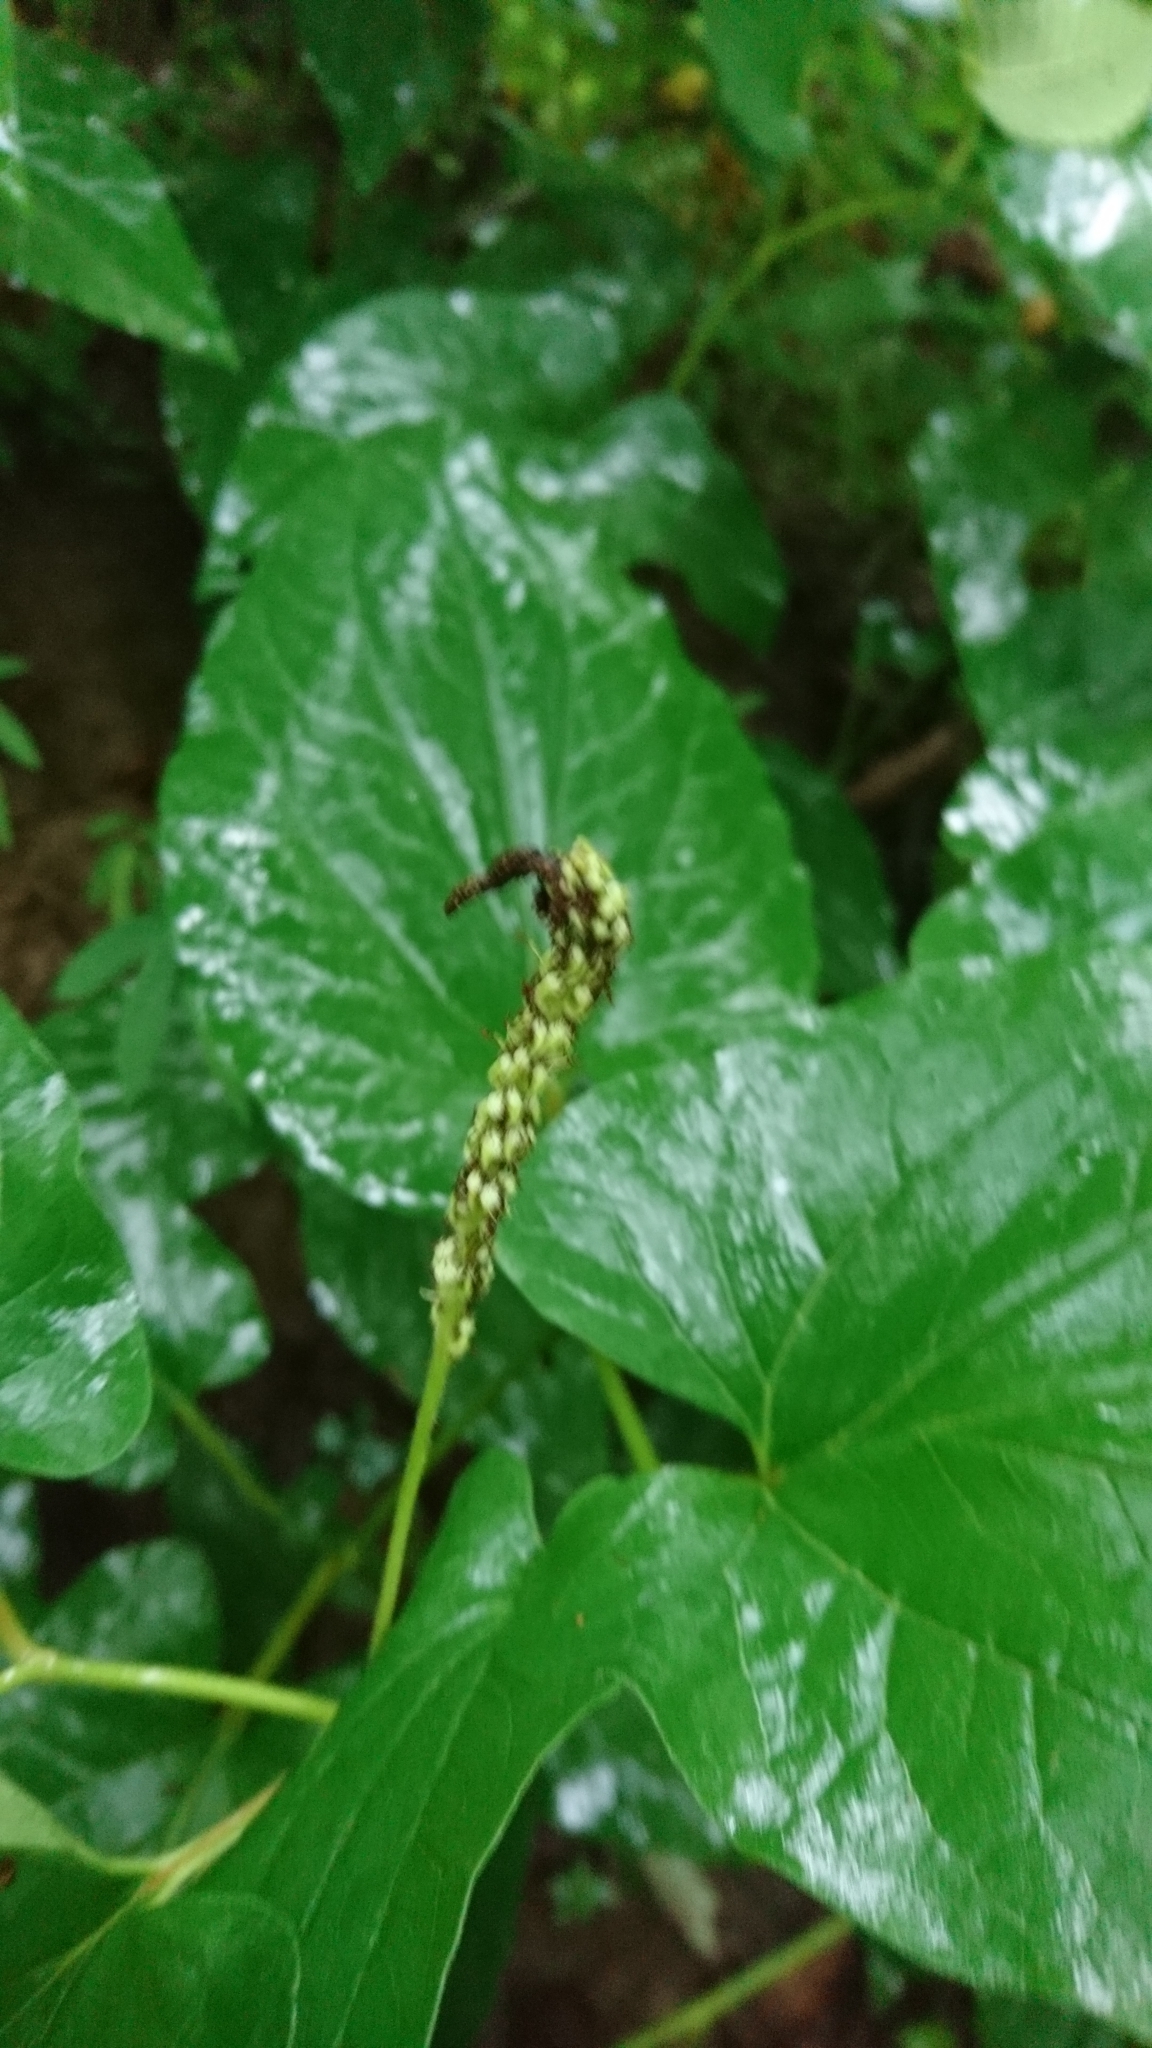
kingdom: Plantae
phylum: Tracheophyta
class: Magnoliopsida
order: Piperales
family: Saururaceae
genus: Saururus
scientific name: Saururus cernuus
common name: Lizard's-tail
